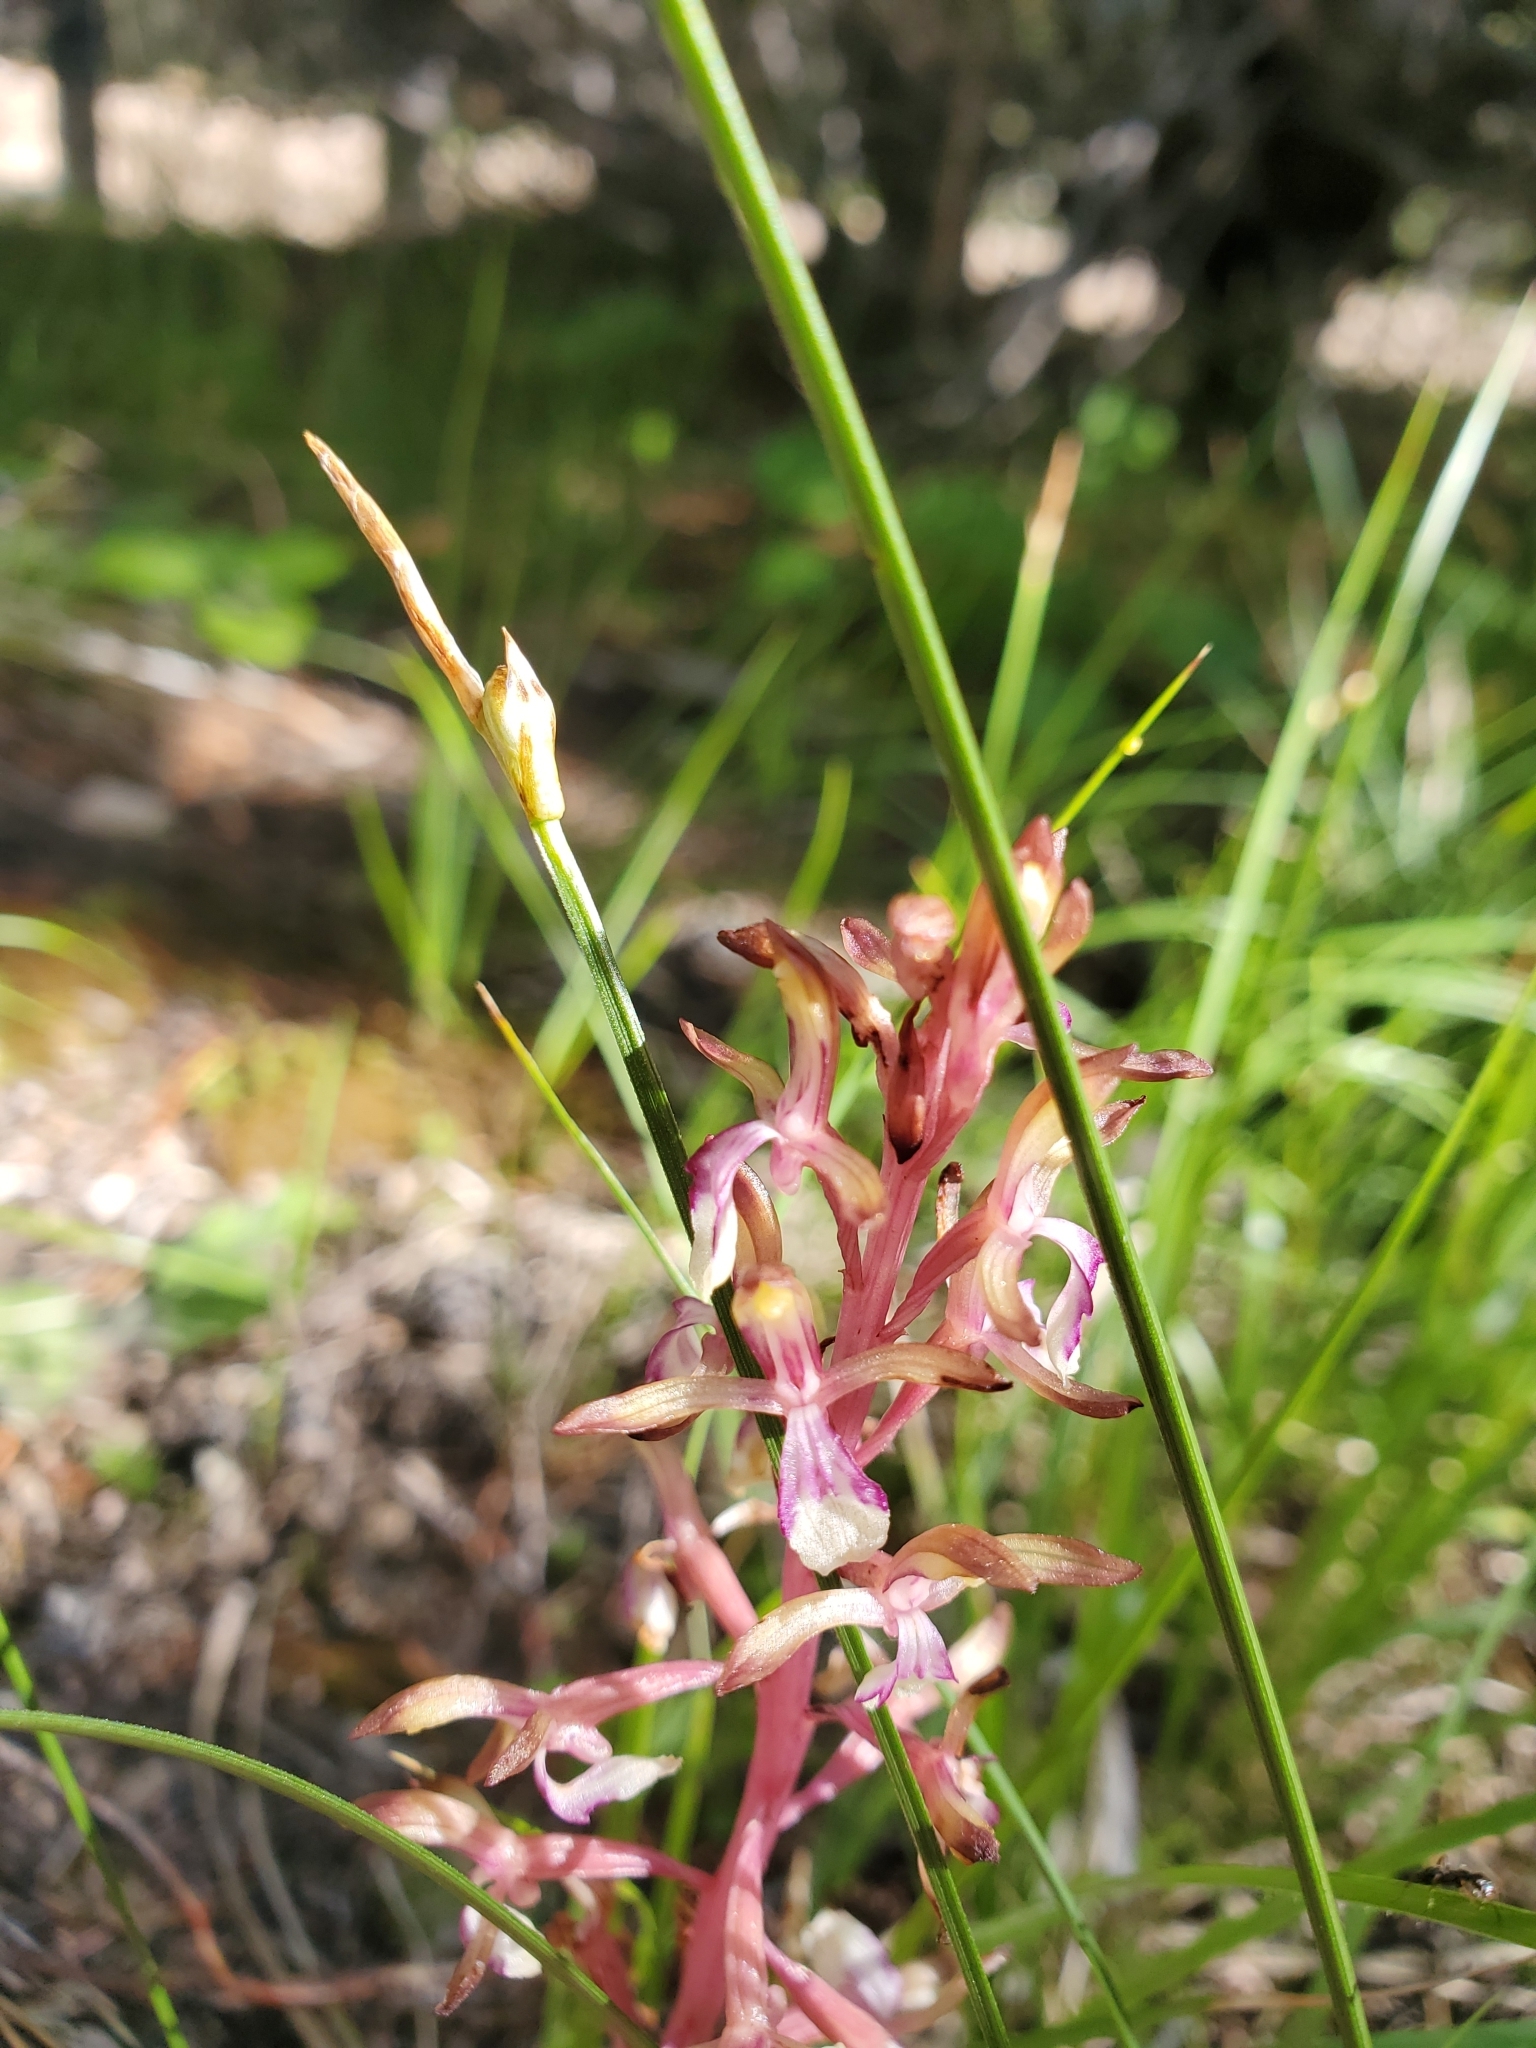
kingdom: Plantae
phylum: Tracheophyta
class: Liliopsida
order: Asparagales
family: Orchidaceae
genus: Corallorhiza
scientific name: Corallorhiza mertensiana
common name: Pacific coralroot
